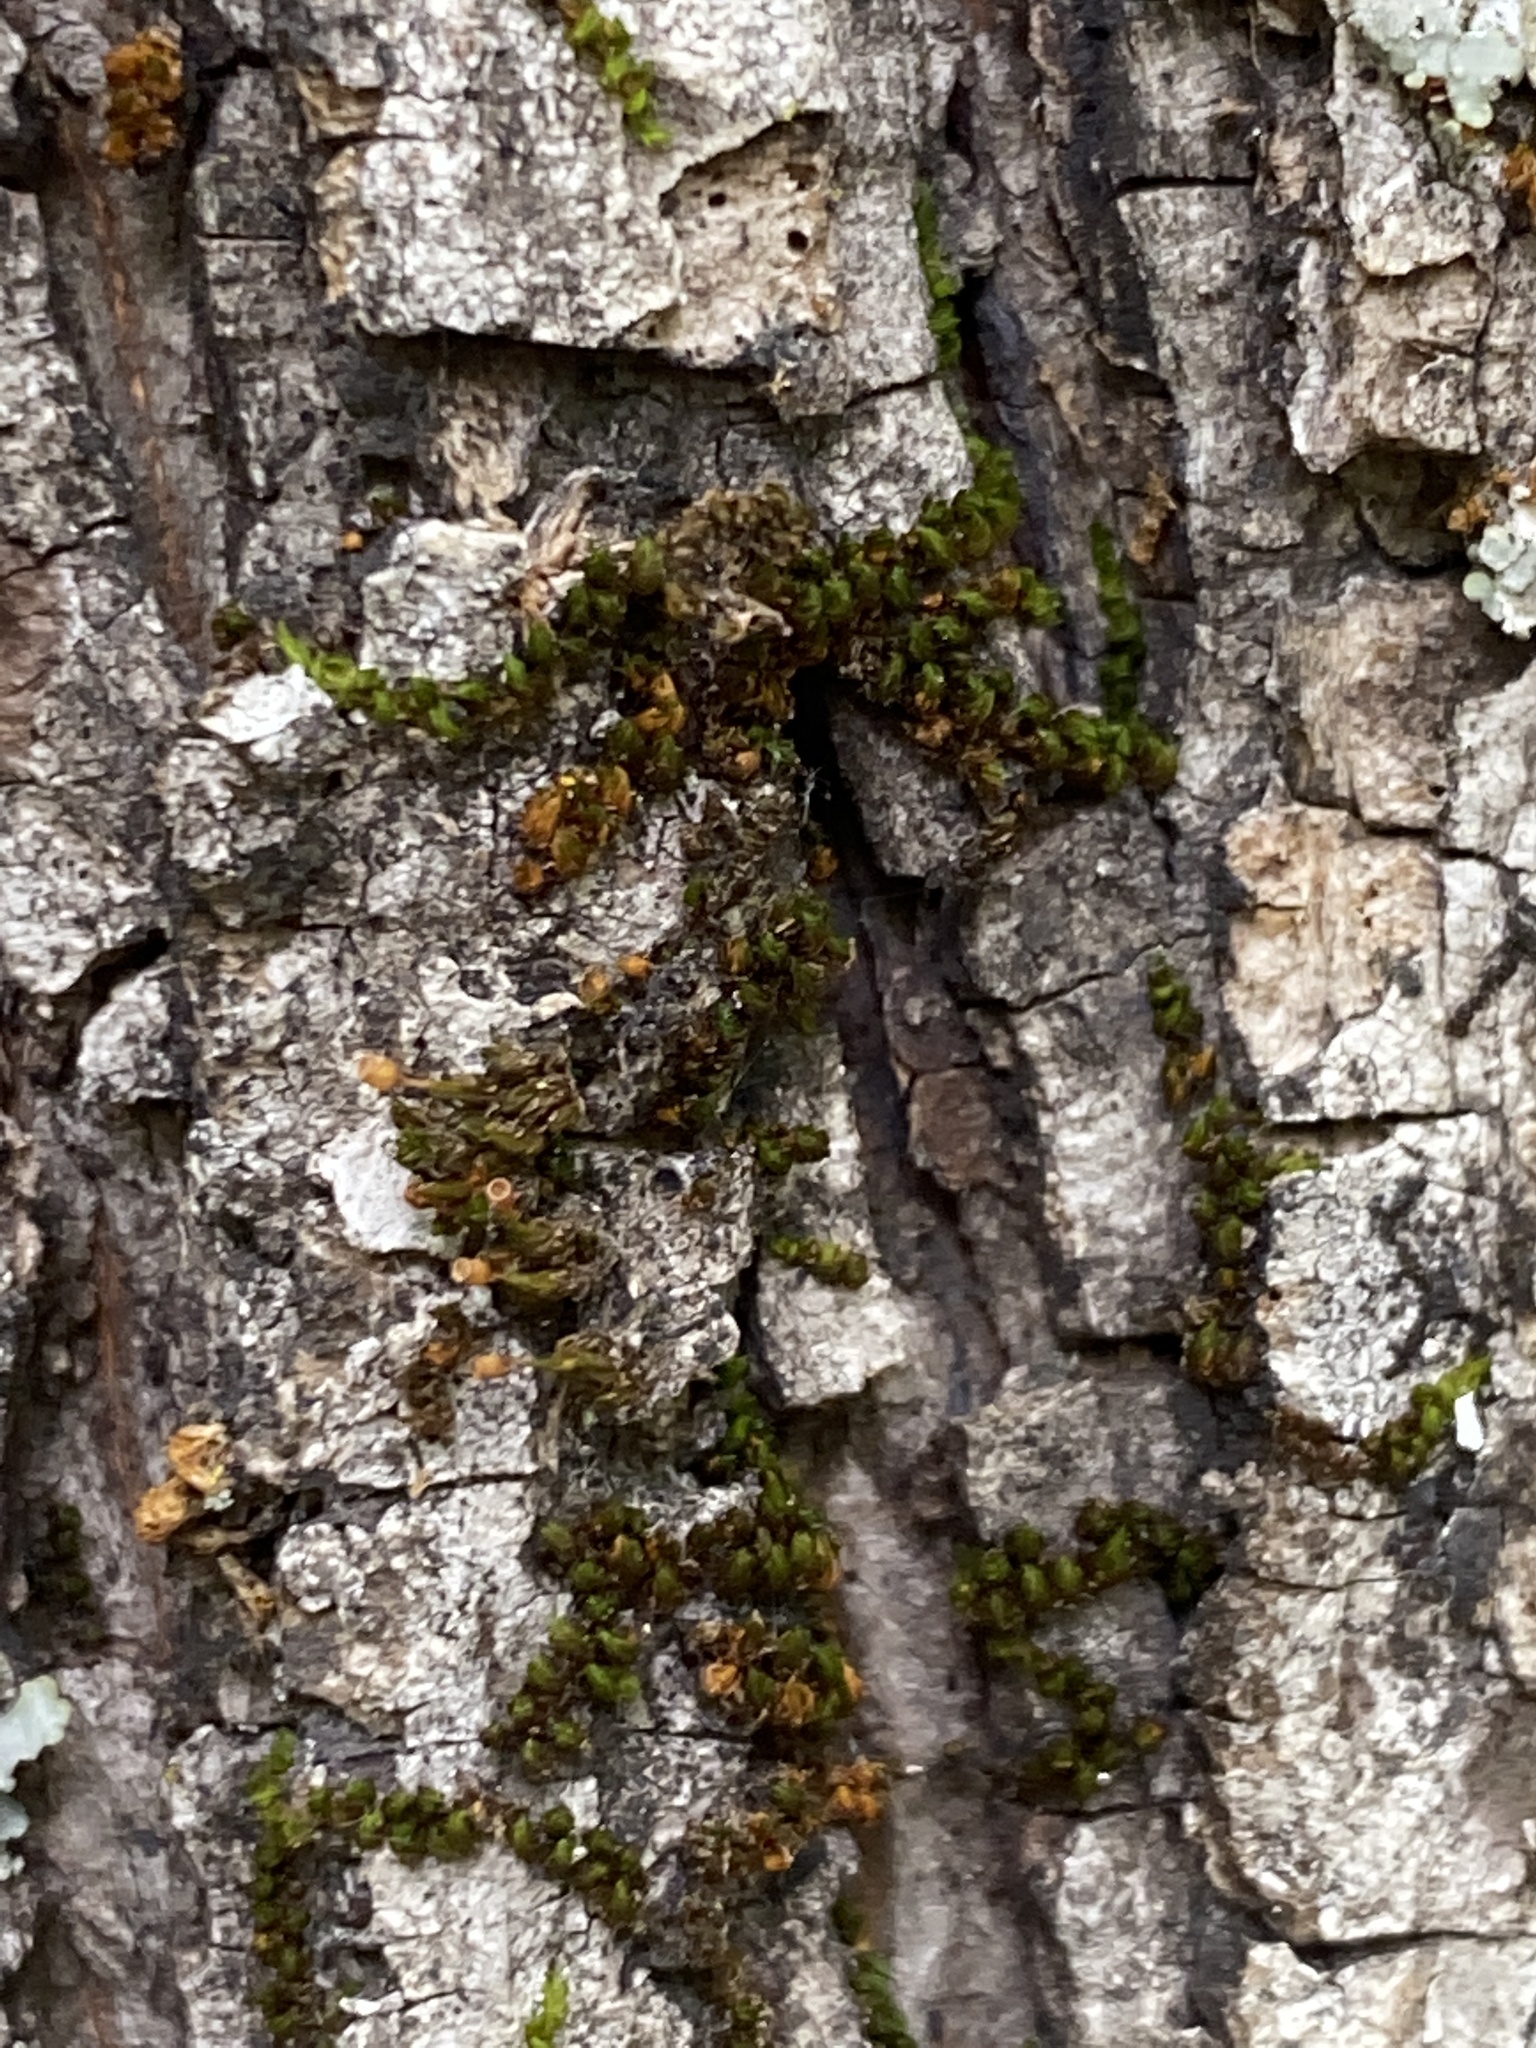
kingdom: Plantae
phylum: Bryophyta
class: Bryopsida
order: Scouleriales
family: Drummondiaceae
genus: Drummondia
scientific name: Drummondia prorepens
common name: Drummond's bark moss
